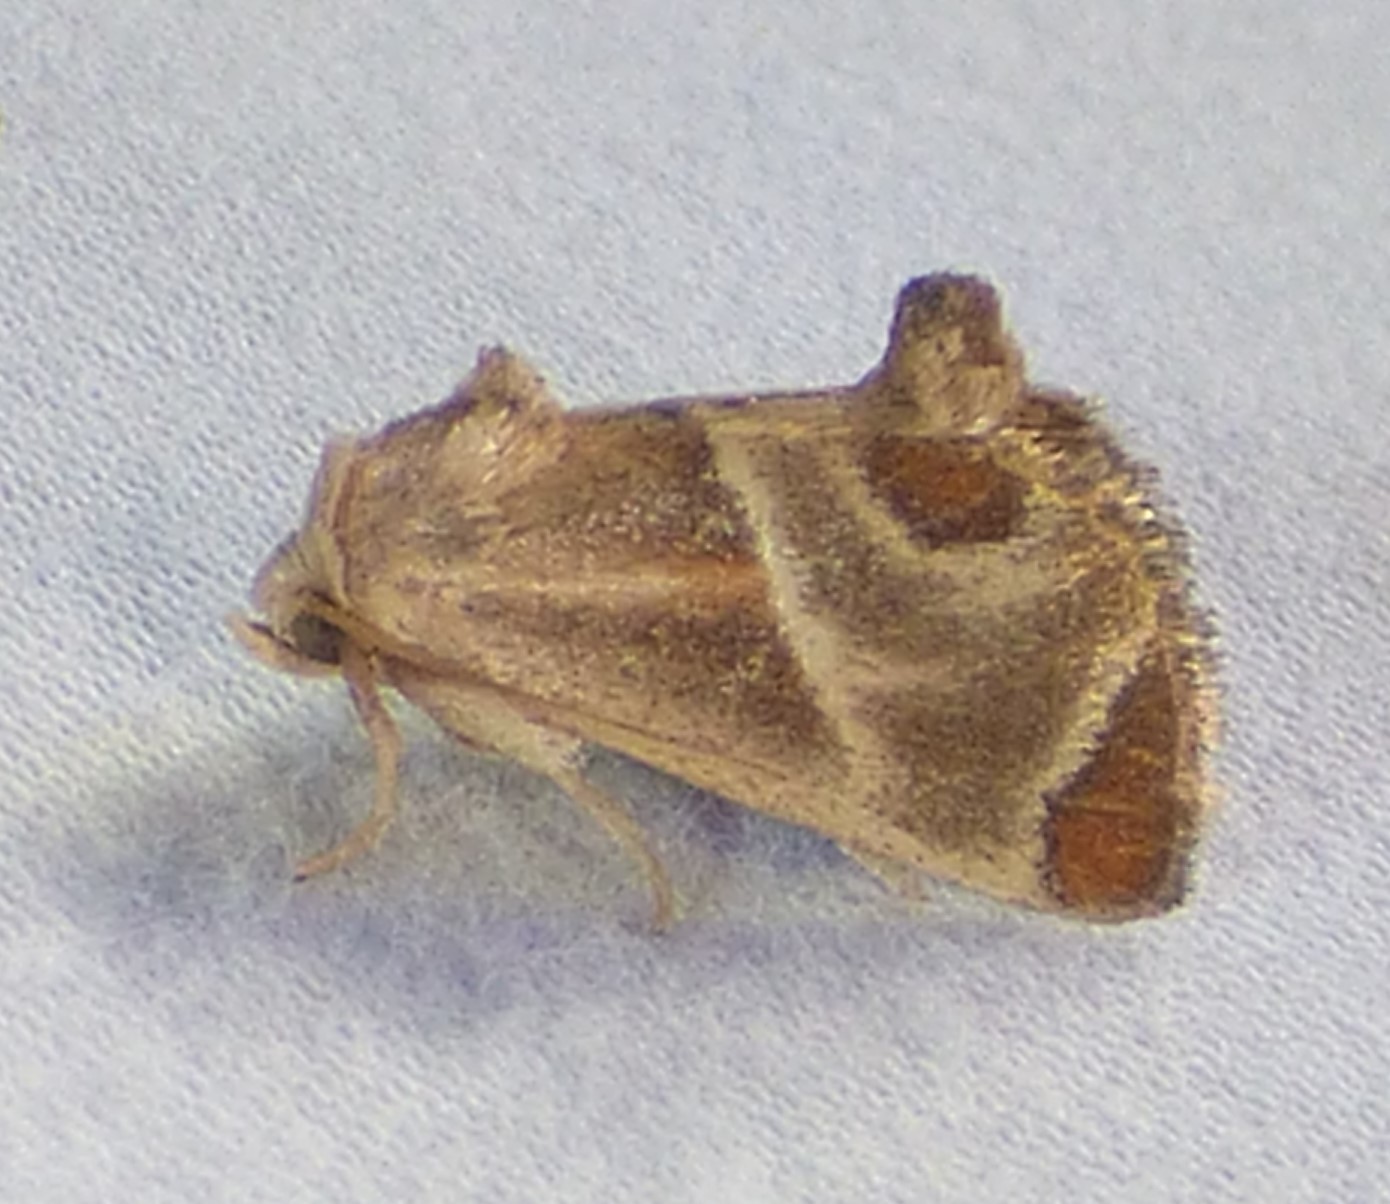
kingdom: Animalia
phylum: Arthropoda
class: Insecta
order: Lepidoptera
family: Limacodidae
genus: Apoda
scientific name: Apoda biguttata
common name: Shagreened slug moth
